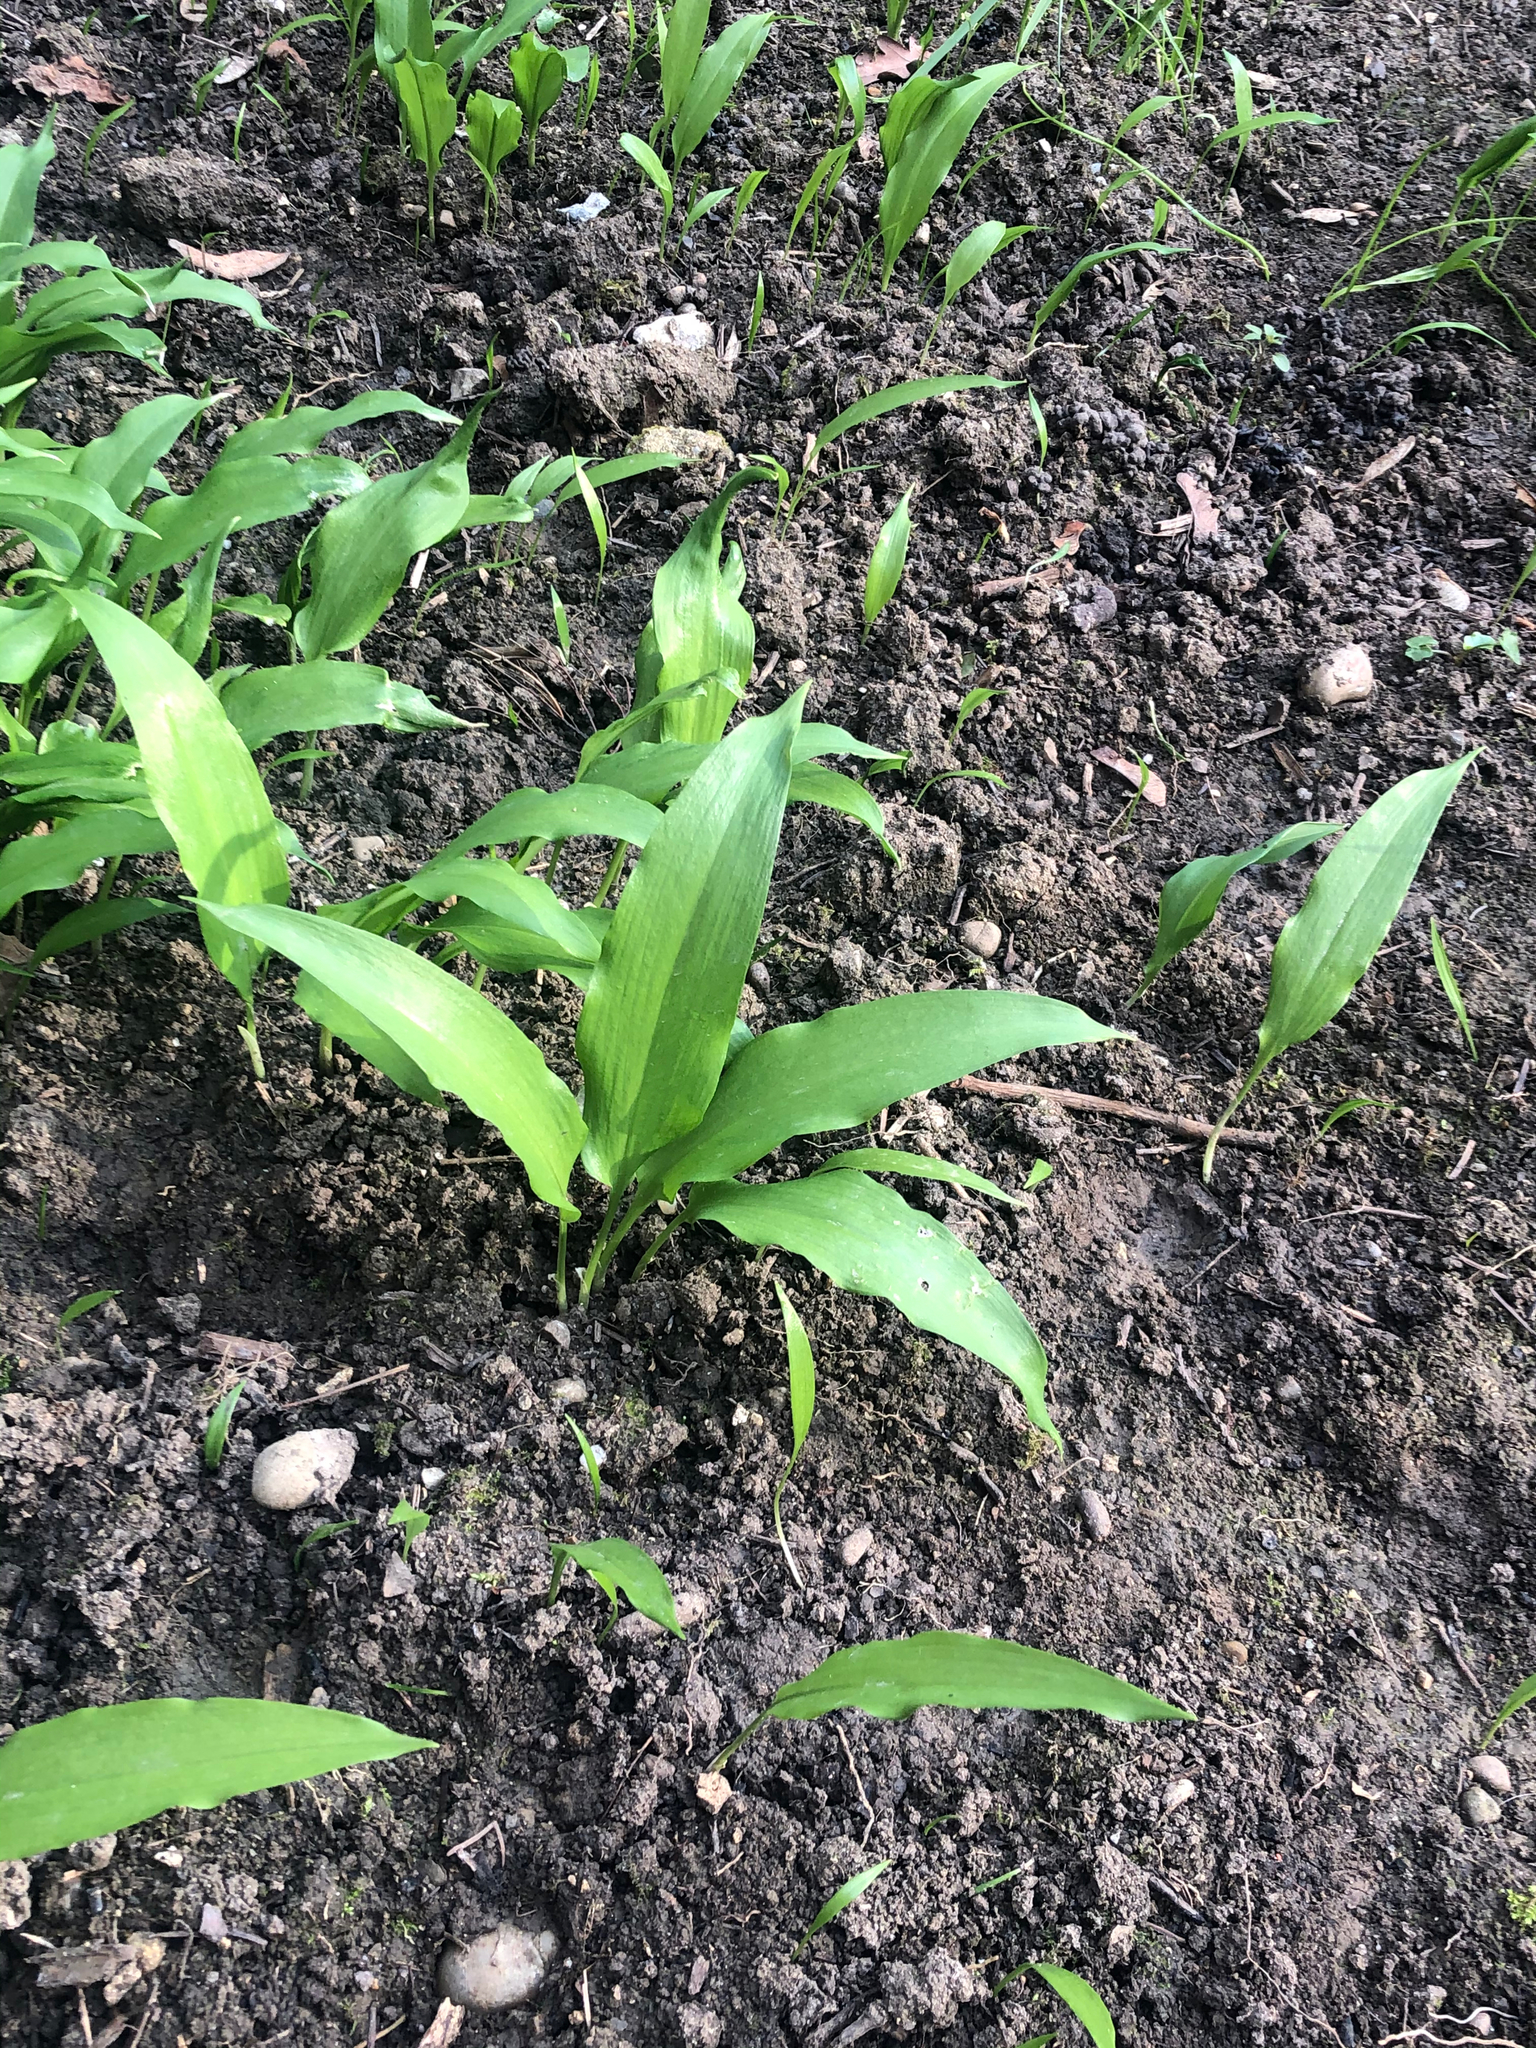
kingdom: Plantae
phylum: Tracheophyta
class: Liliopsida
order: Asparagales
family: Amaryllidaceae
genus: Allium
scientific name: Allium ursinum
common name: Ramsons
